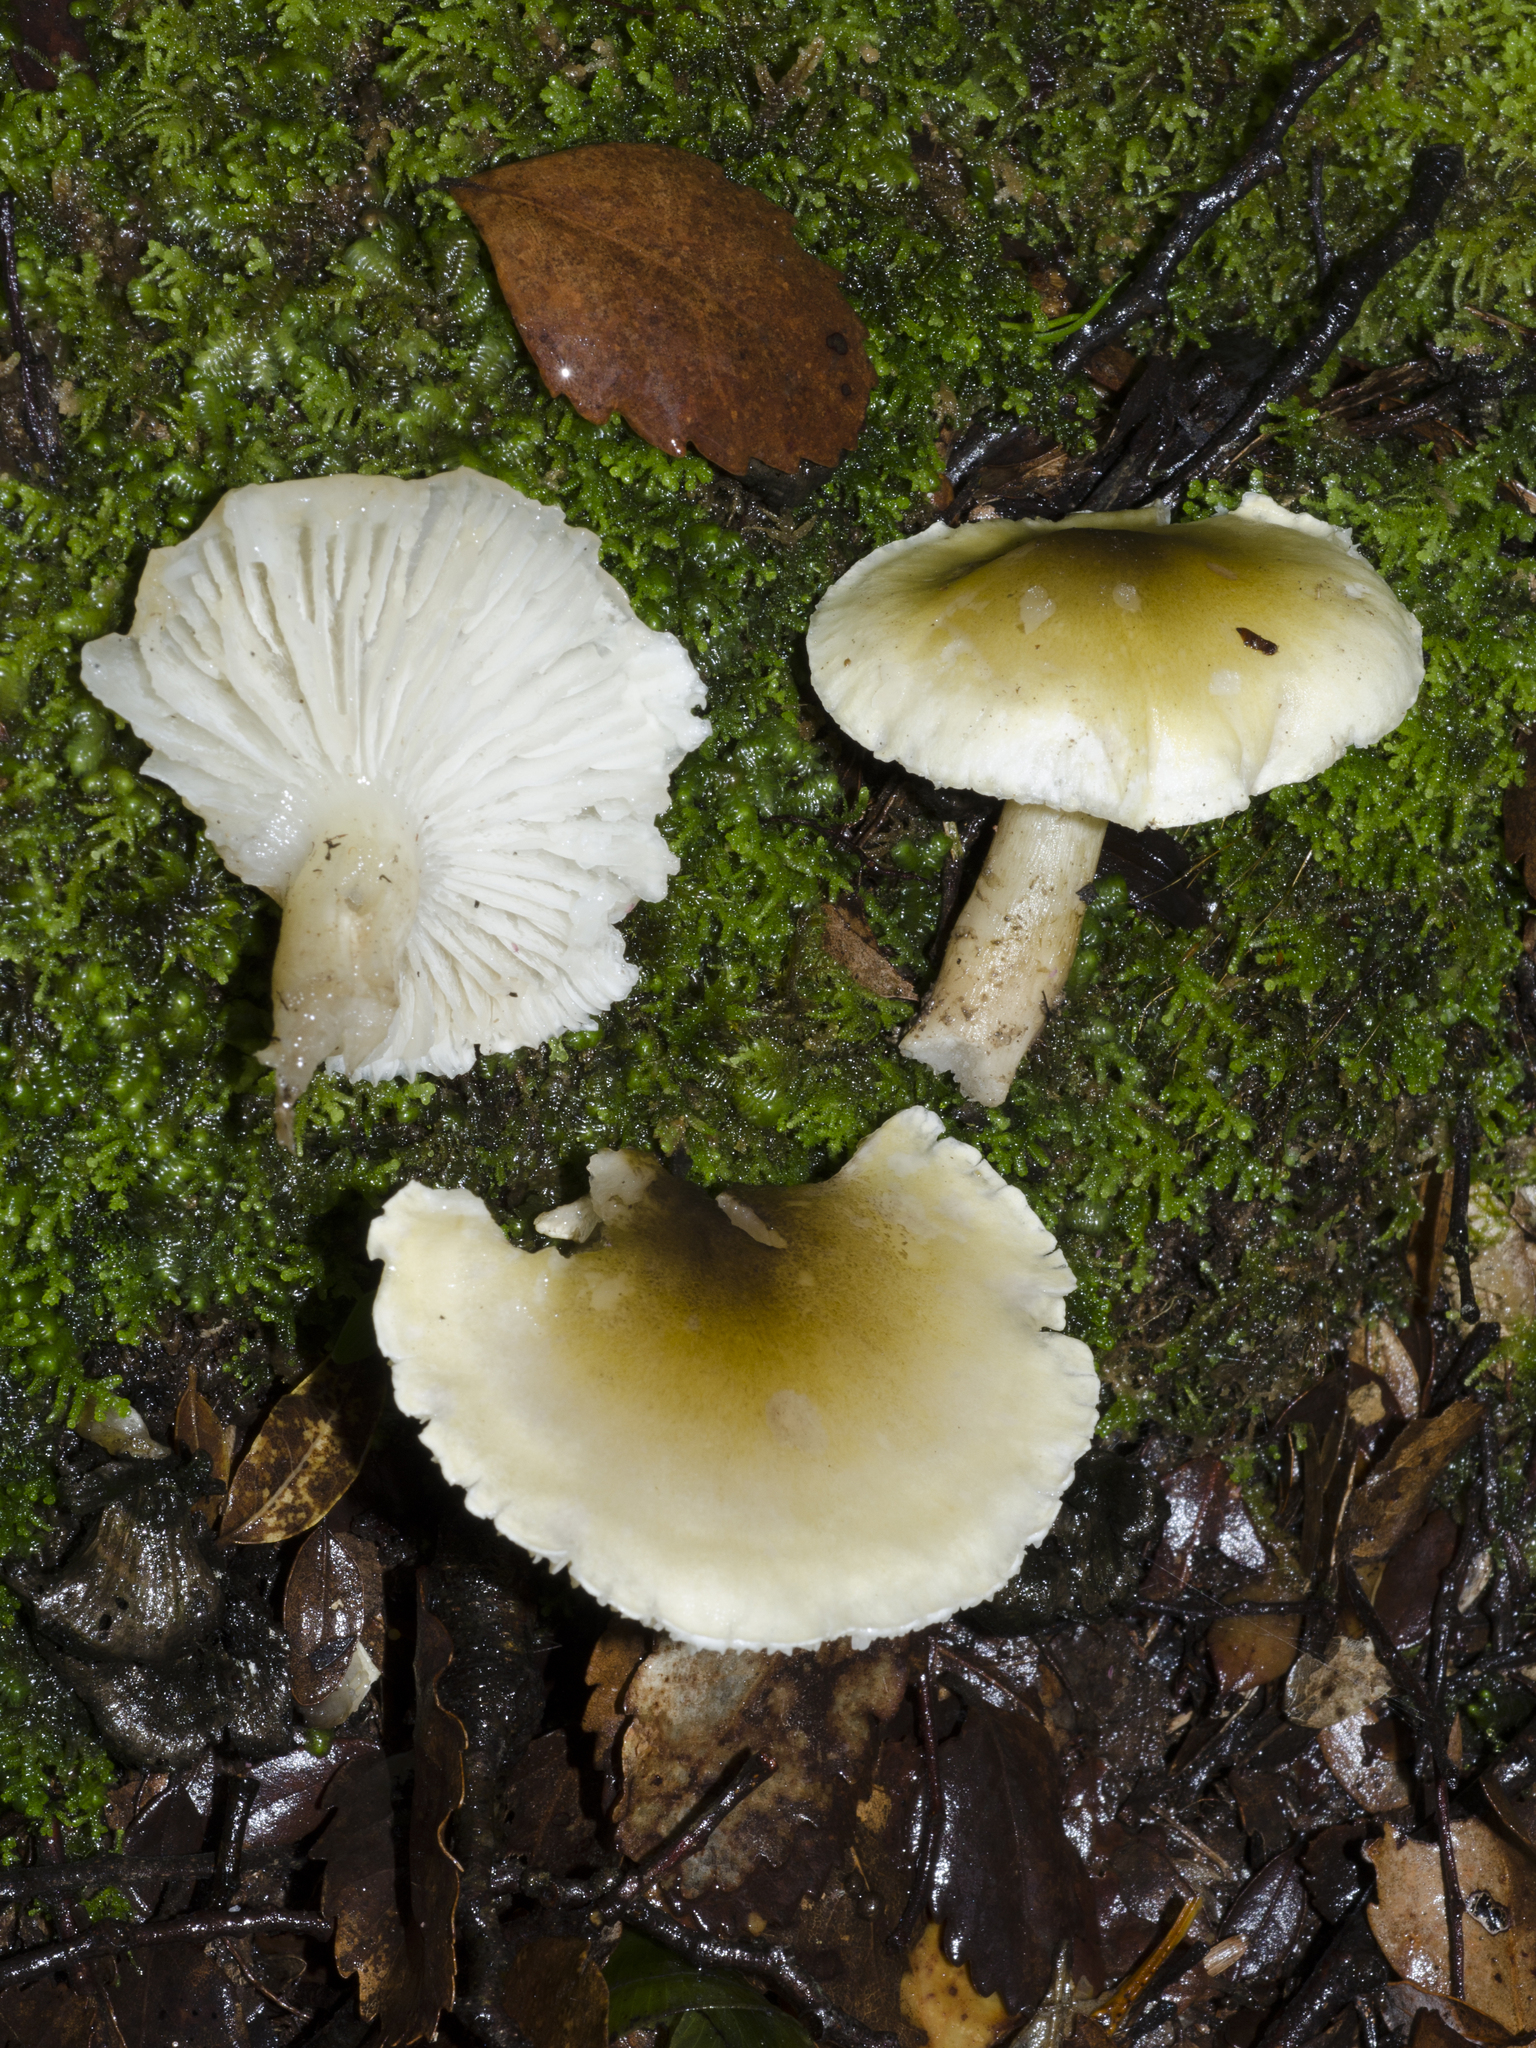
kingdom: Fungi
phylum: Basidiomycota
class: Agaricomycetes
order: Agaricales
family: Tricholomataceae
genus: Tricholoma
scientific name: Tricholoma viridiolivaceum
